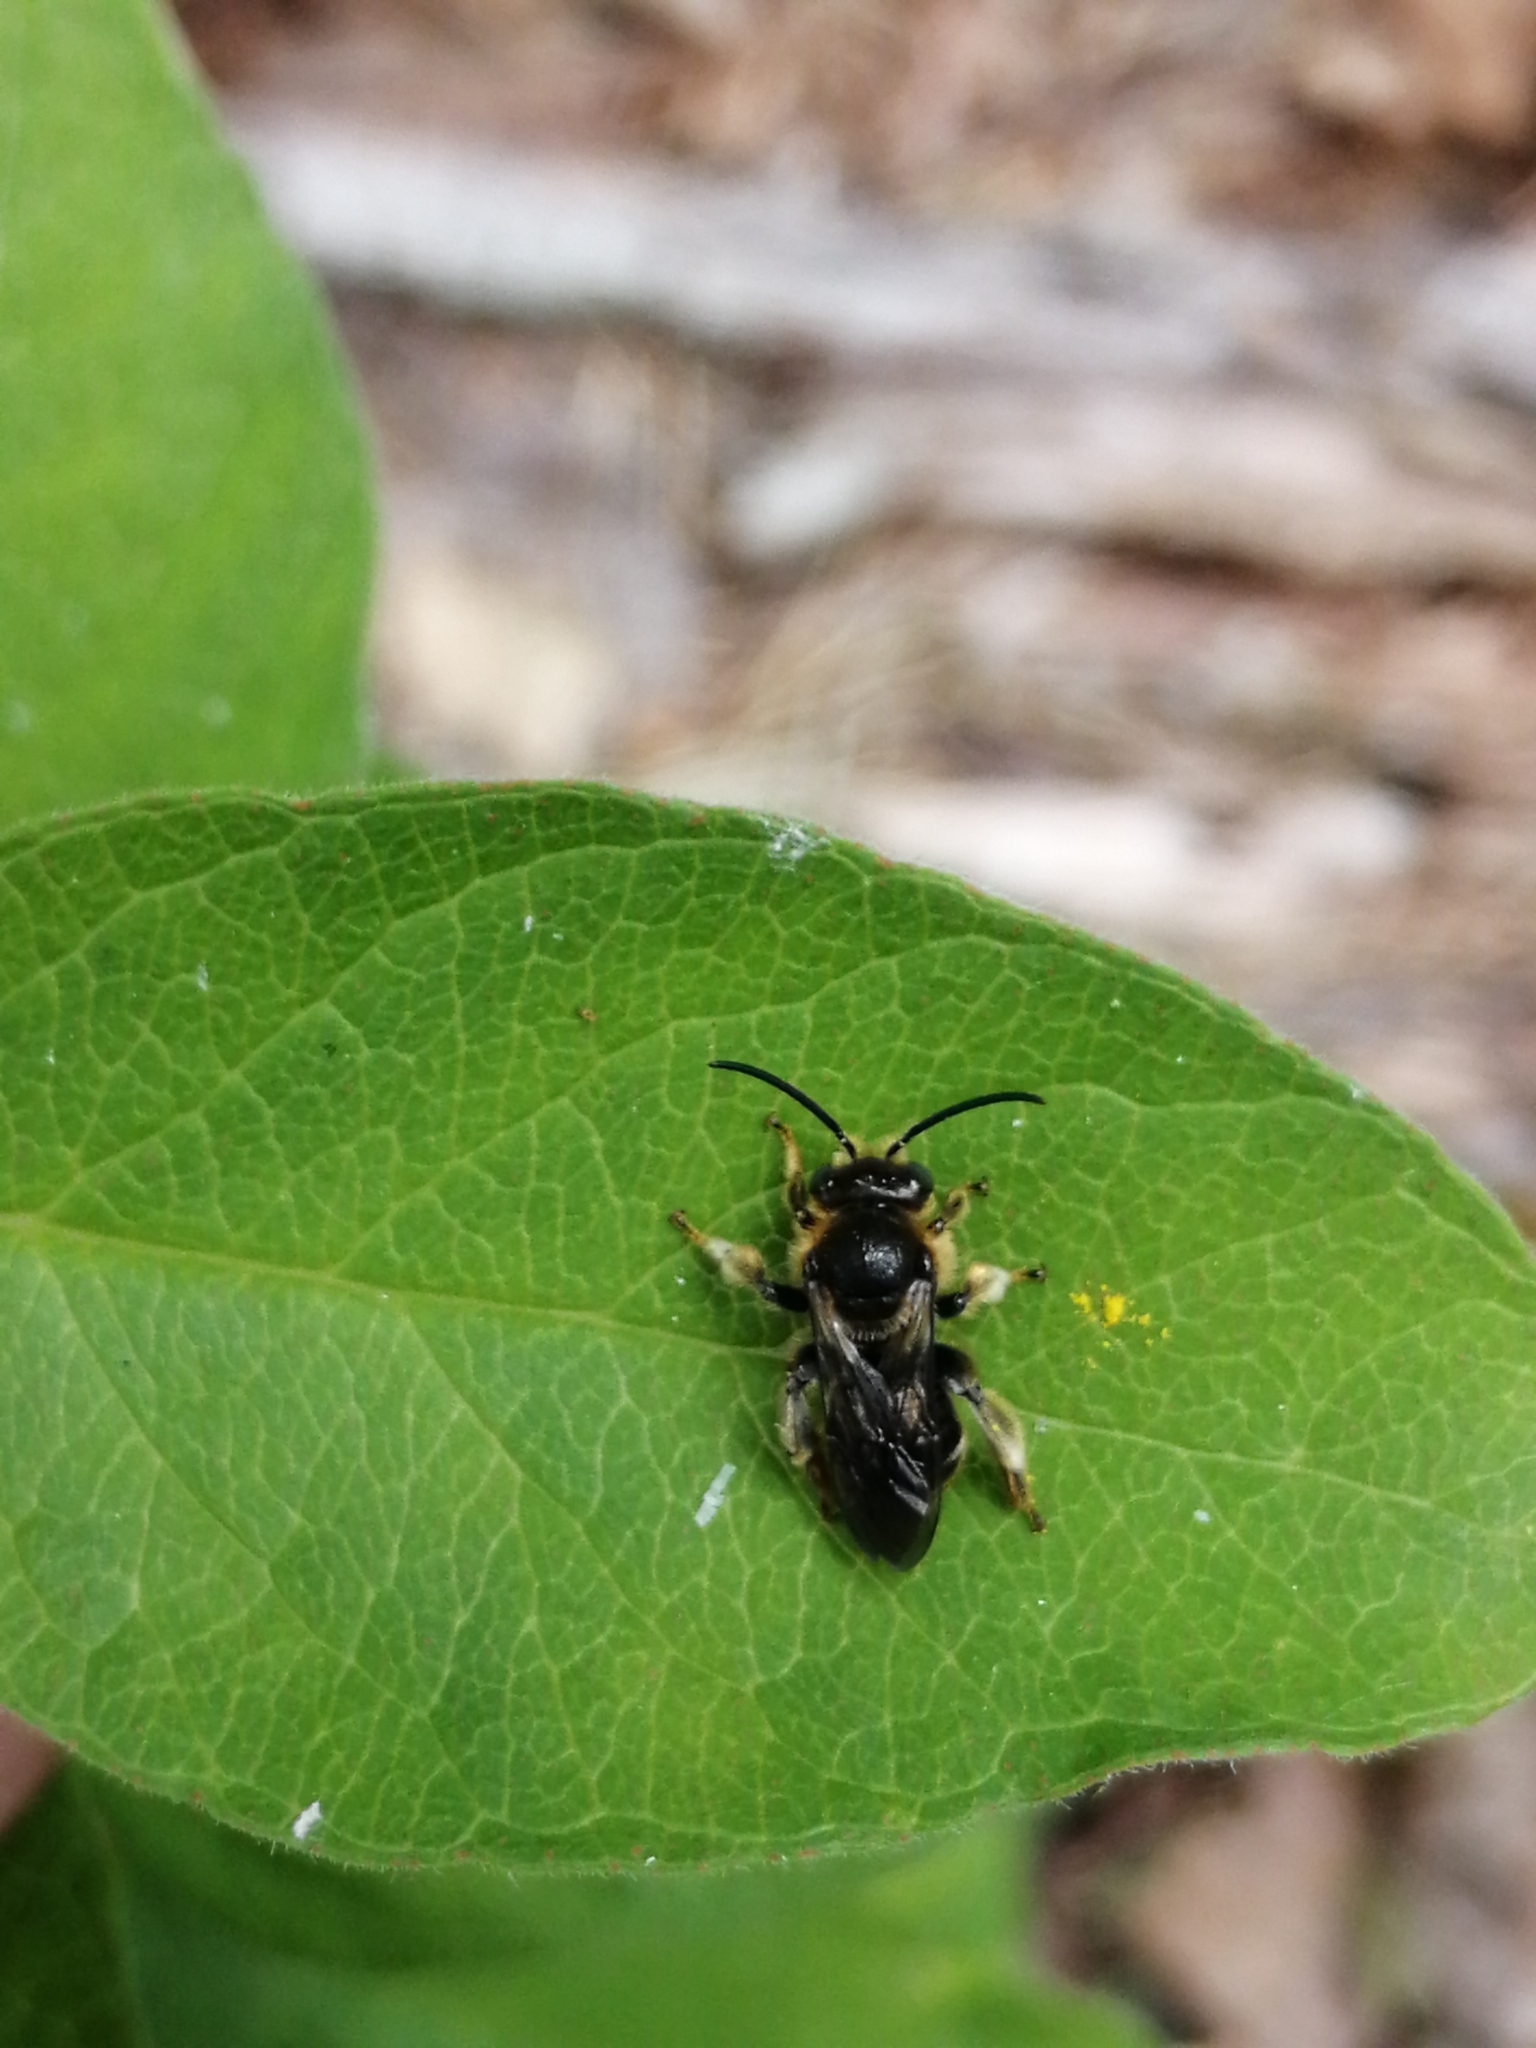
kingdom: Animalia
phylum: Arthropoda
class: Insecta
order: Hymenoptera
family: Melittidae
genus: Macropis
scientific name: Macropis
